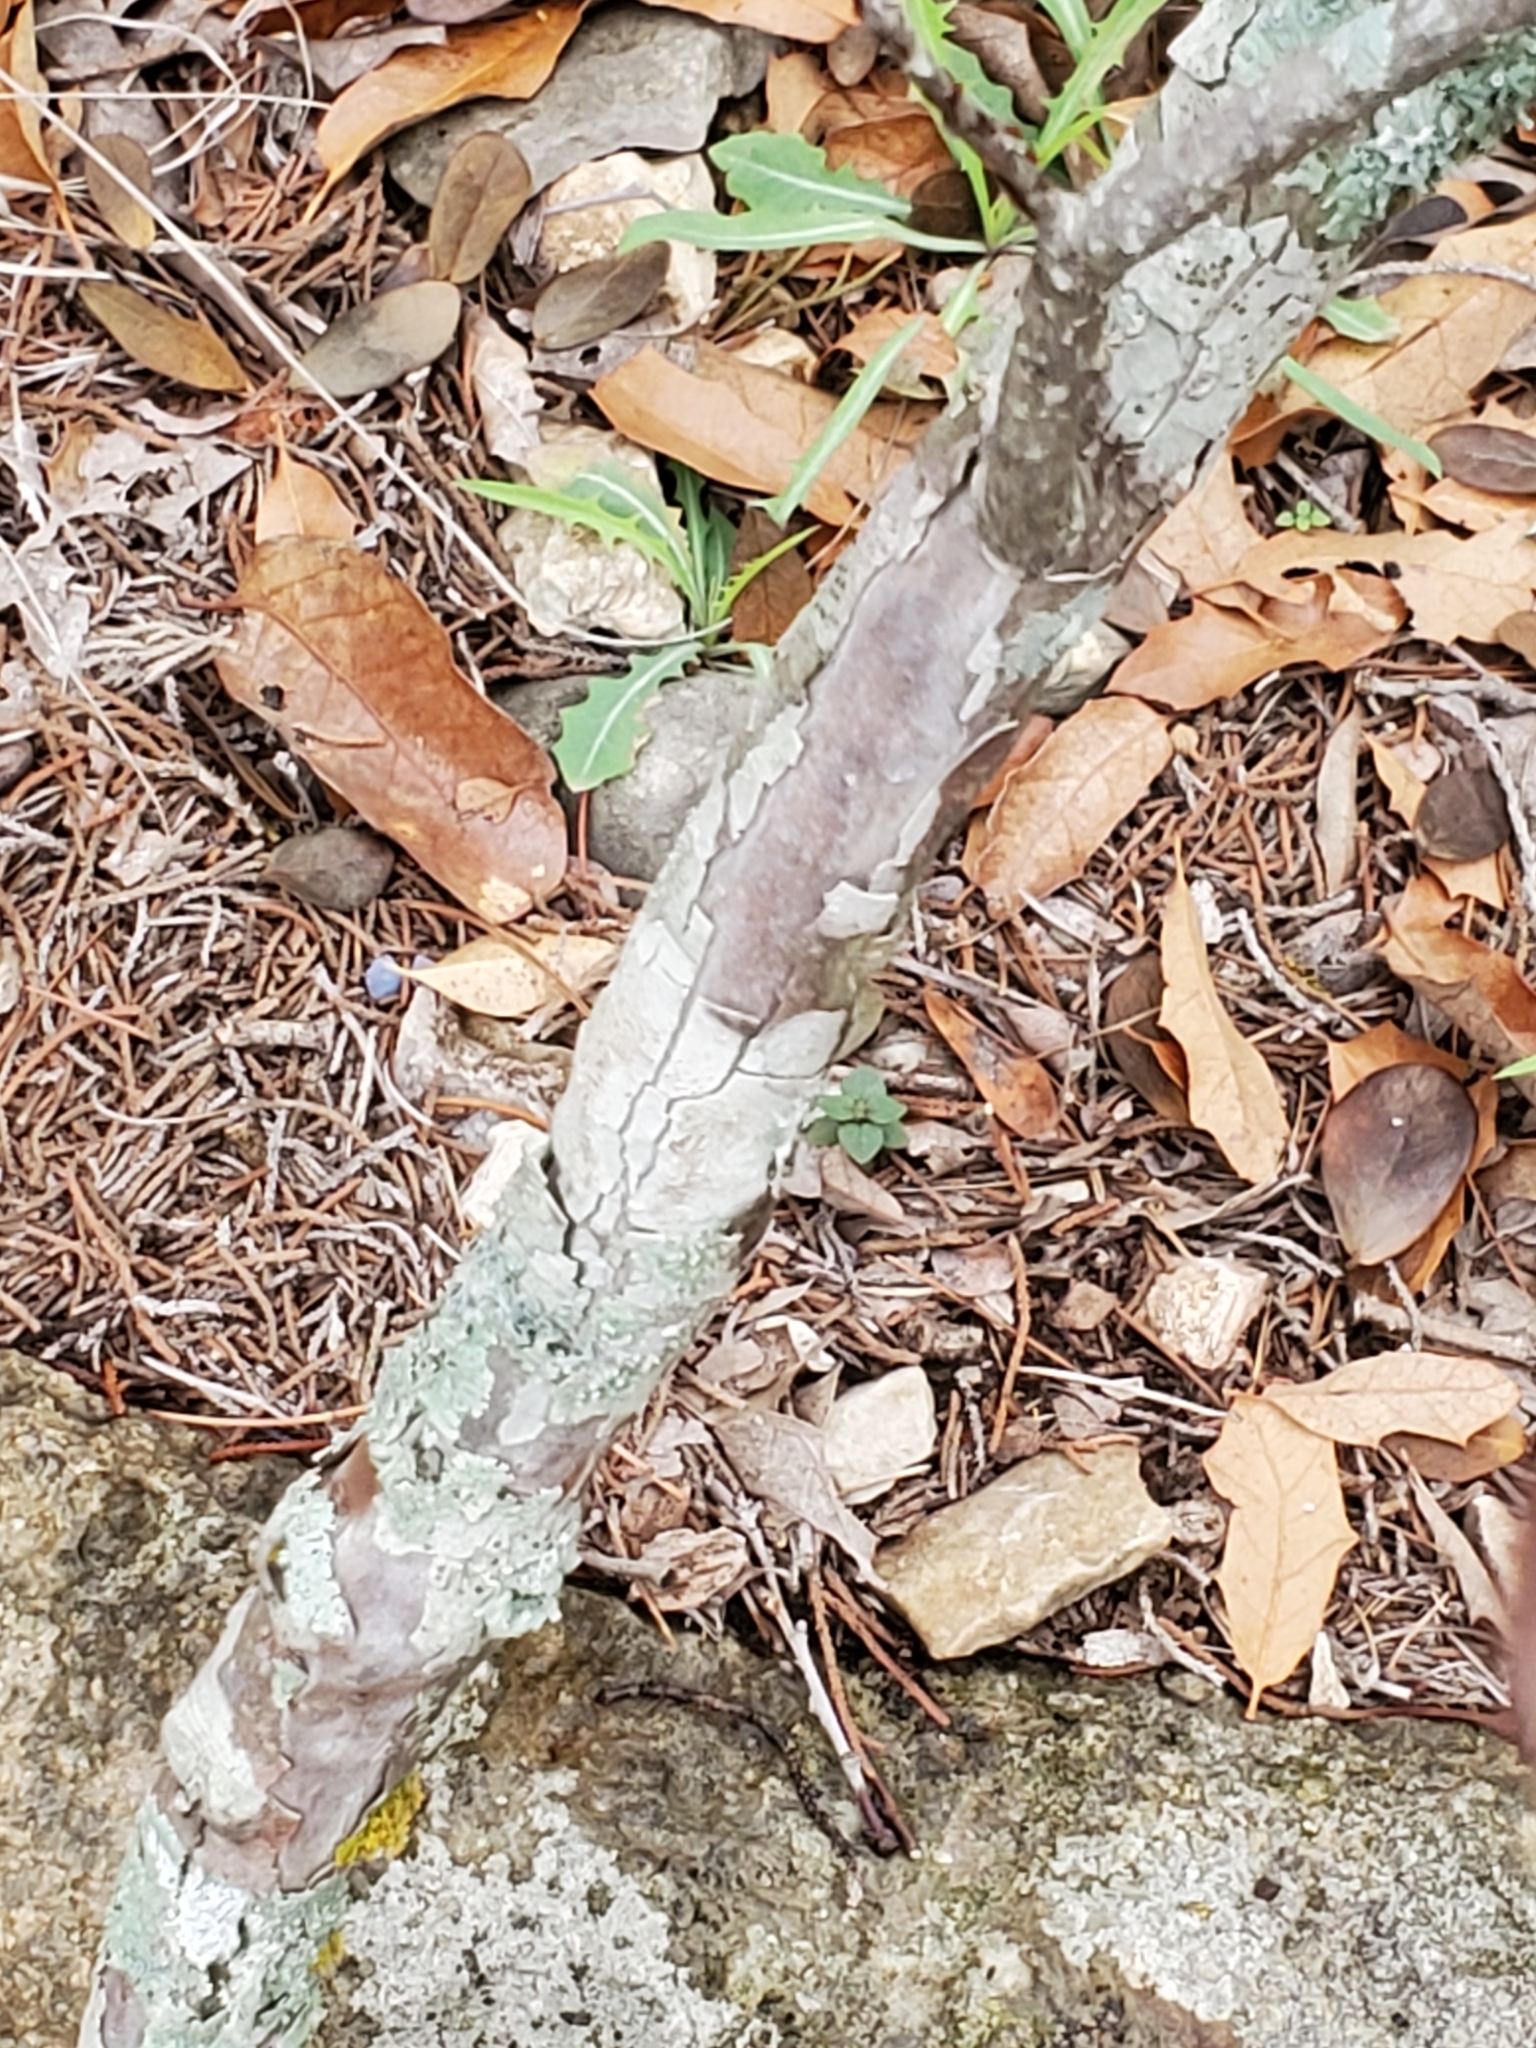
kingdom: Plantae
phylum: Tracheophyta
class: Magnoliopsida
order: Ericales
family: Ebenaceae
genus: Diospyros
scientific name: Diospyros texana
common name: Texas persimmon
